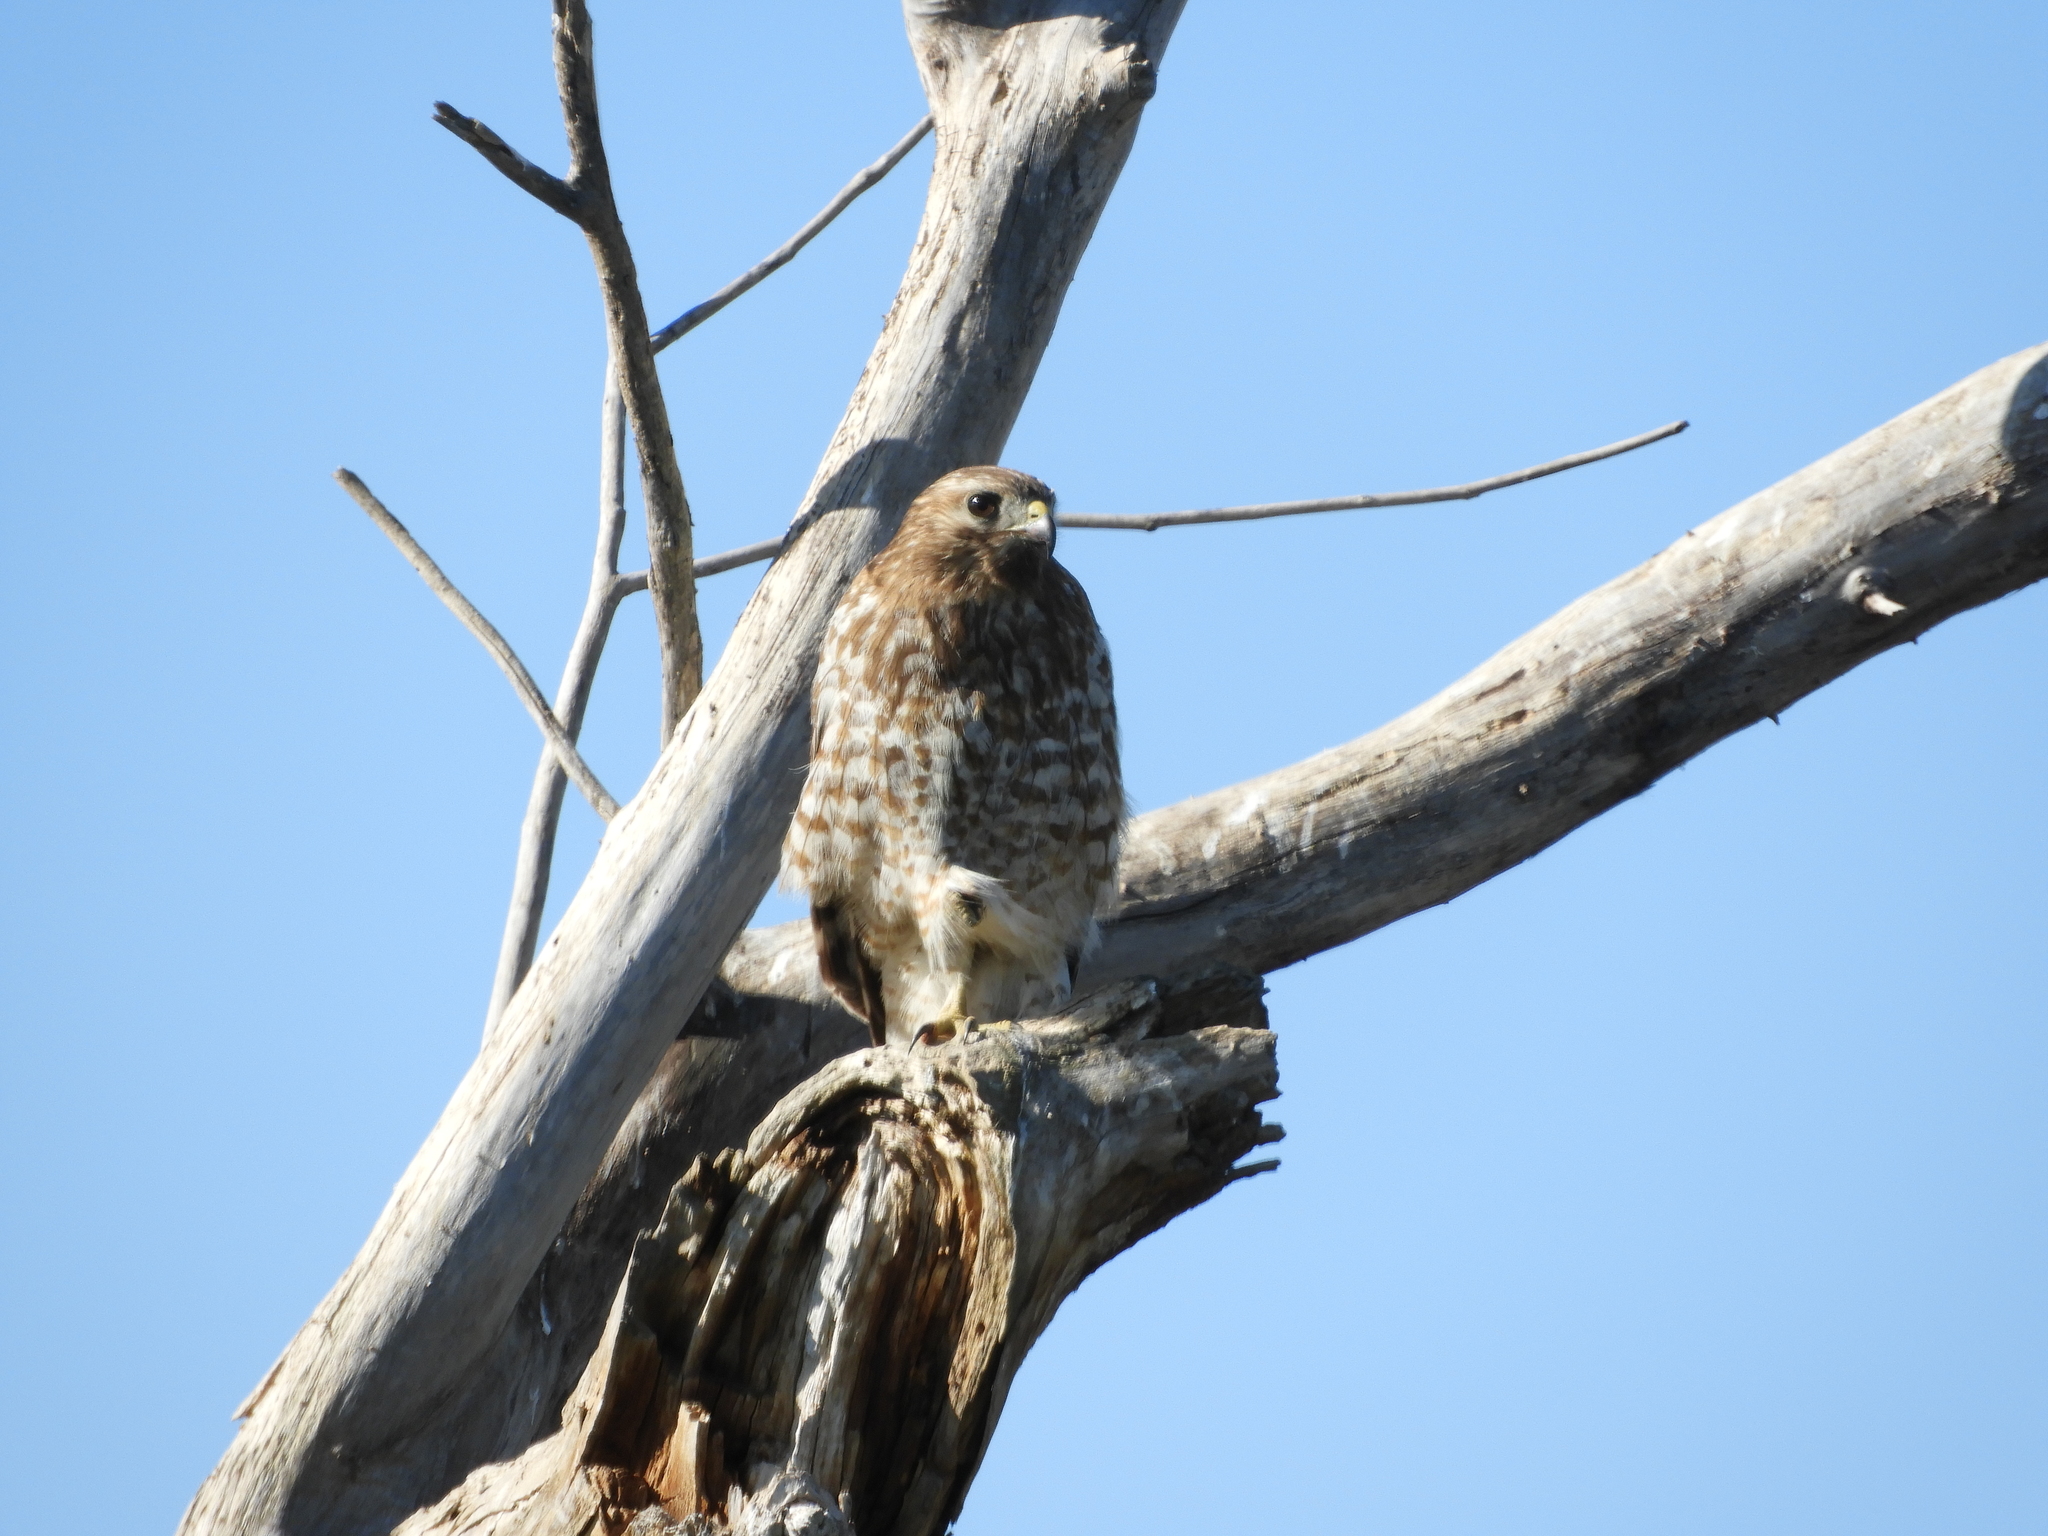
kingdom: Animalia
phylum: Chordata
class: Aves
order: Accipitriformes
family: Accipitridae
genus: Buteo
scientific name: Buteo lineatus
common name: Red-shouldered hawk
